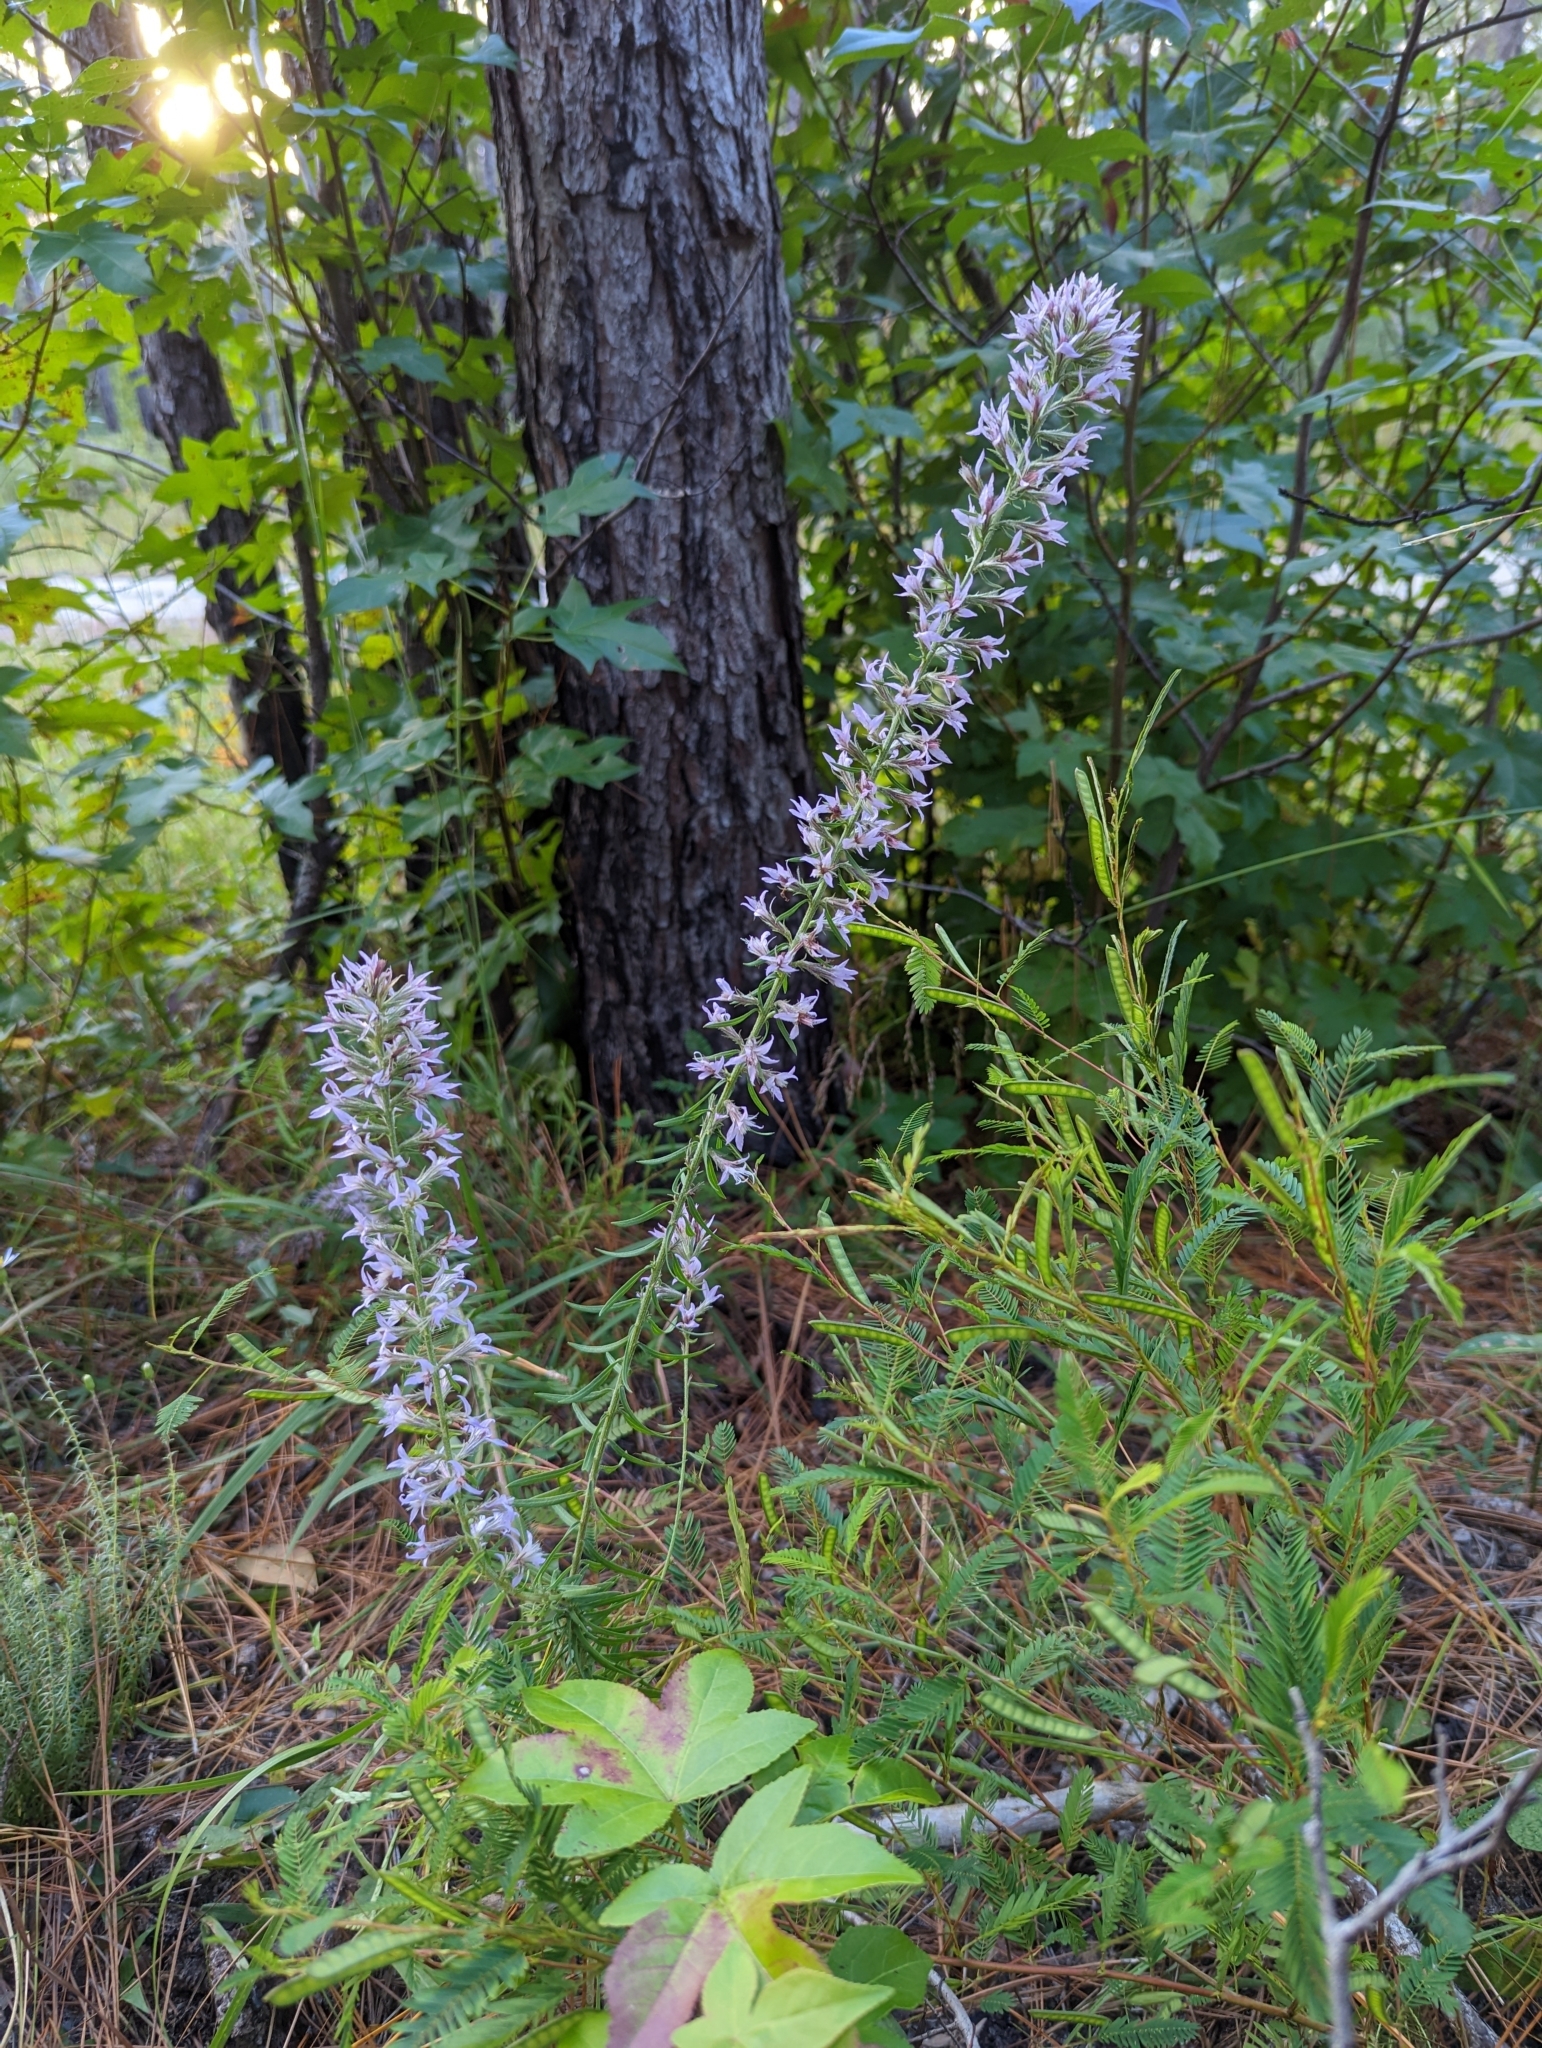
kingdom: Plantae
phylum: Tracheophyta
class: Magnoliopsida
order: Asterales
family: Asteraceae
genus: Liatris
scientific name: Liatris elegans
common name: Pinkscale gayfeather
